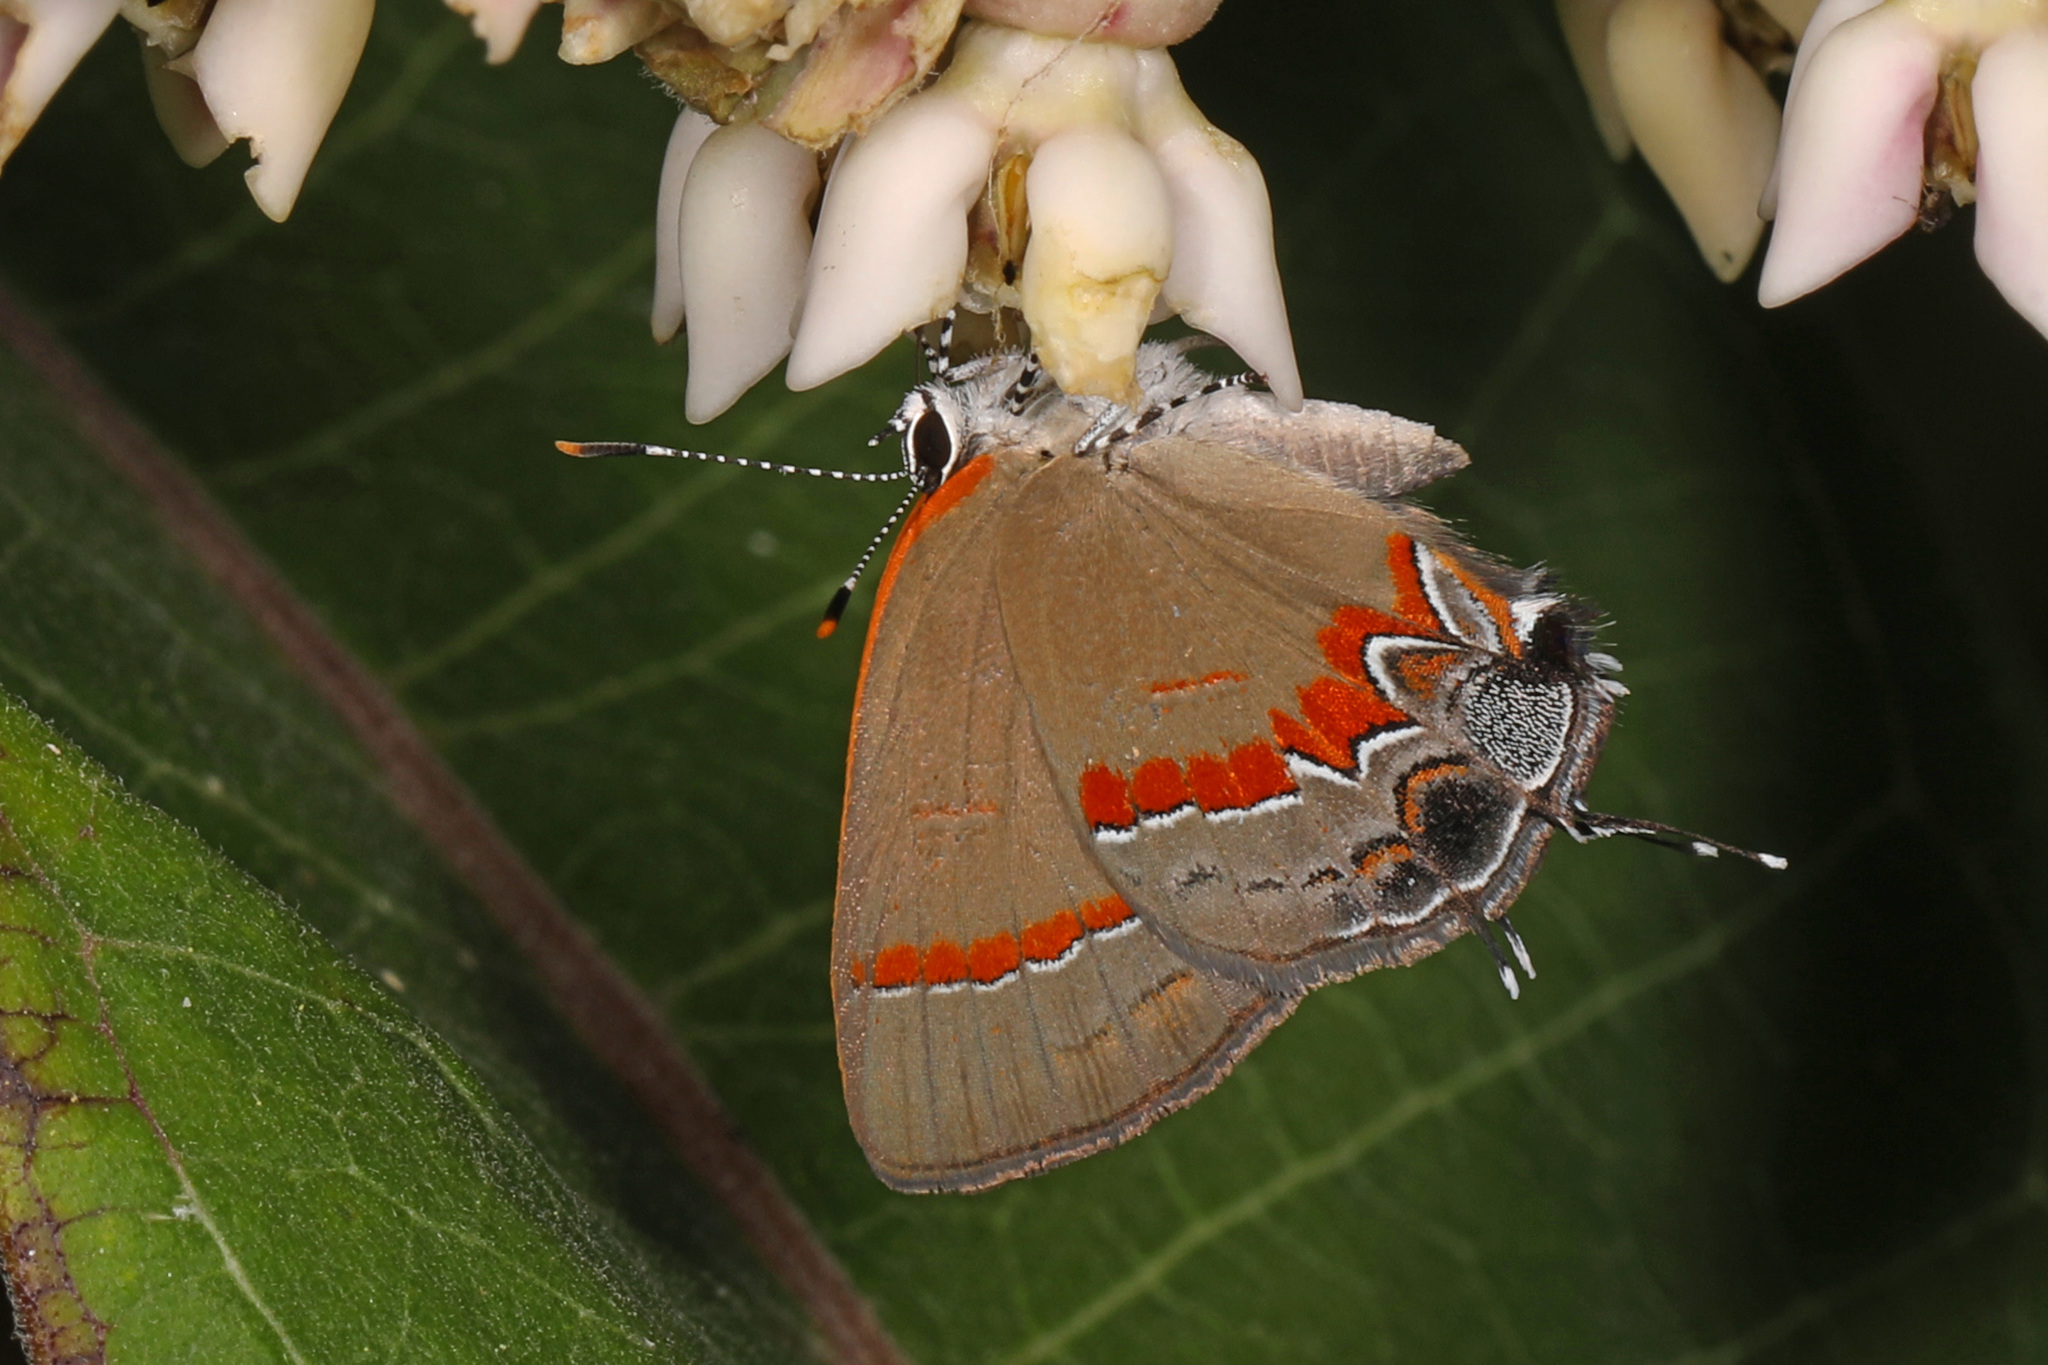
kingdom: Animalia
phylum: Arthropoda
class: Insecta
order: Lepidoptera
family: Lycaenidae
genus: Calycopis
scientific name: Calycopis cecrops
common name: Red-banded hairstreak
